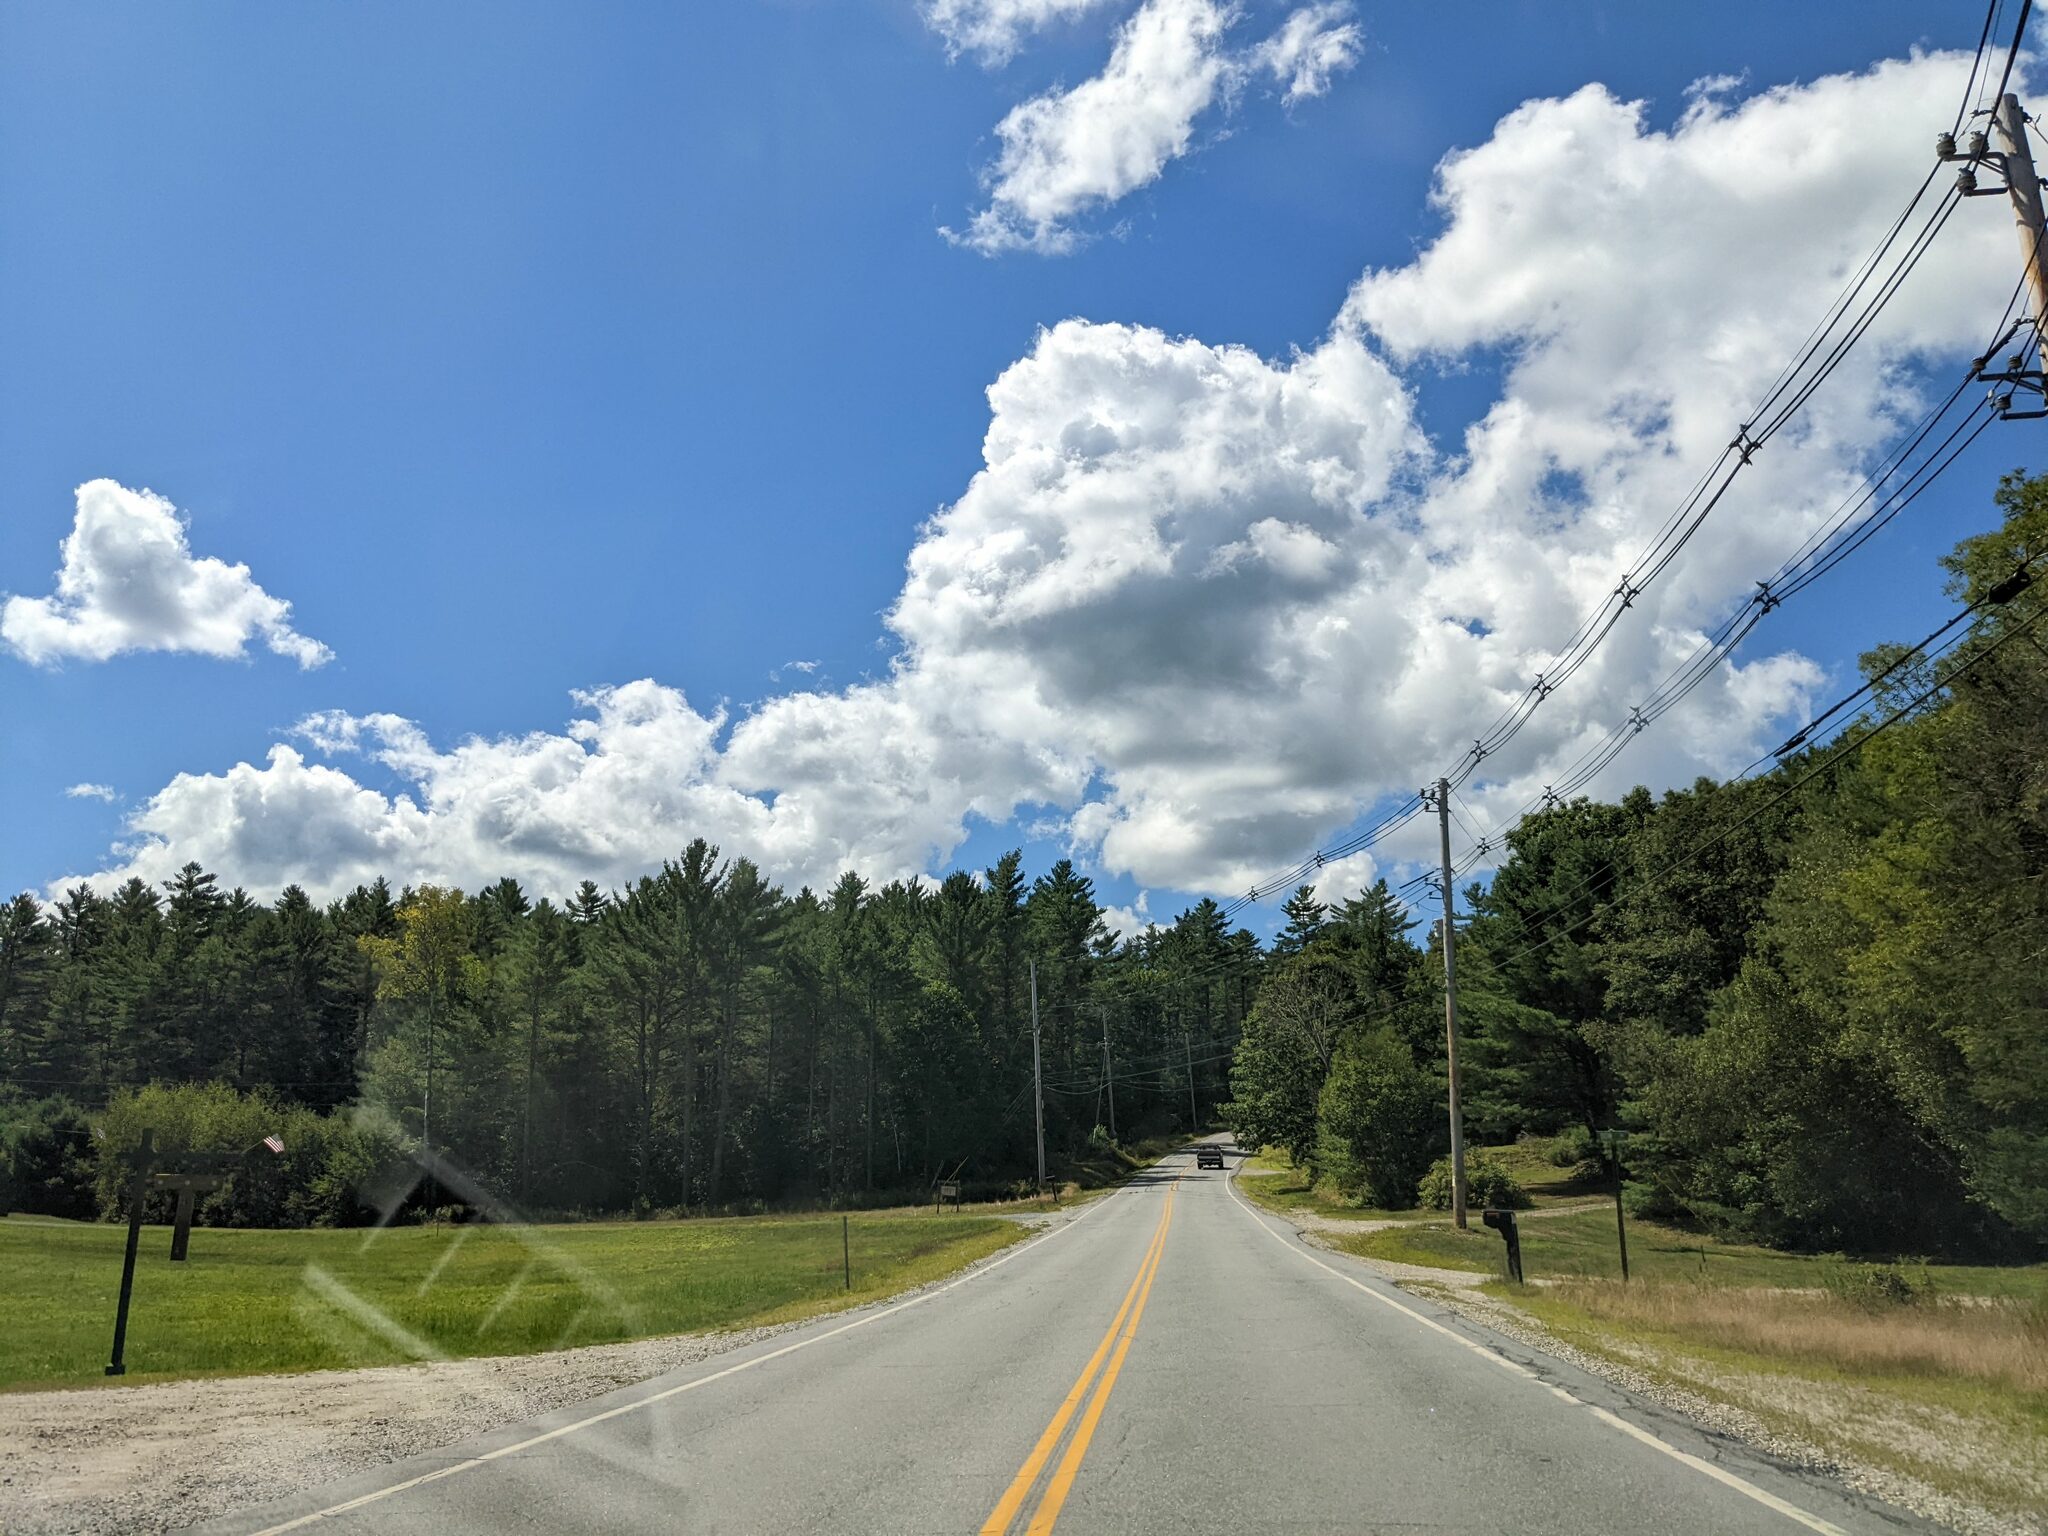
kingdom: Plantae
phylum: Tracheophyta
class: Pinopsida
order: Pinales
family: Pinaceae
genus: Pinus
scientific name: Pinus strobus
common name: Weymouth pine
